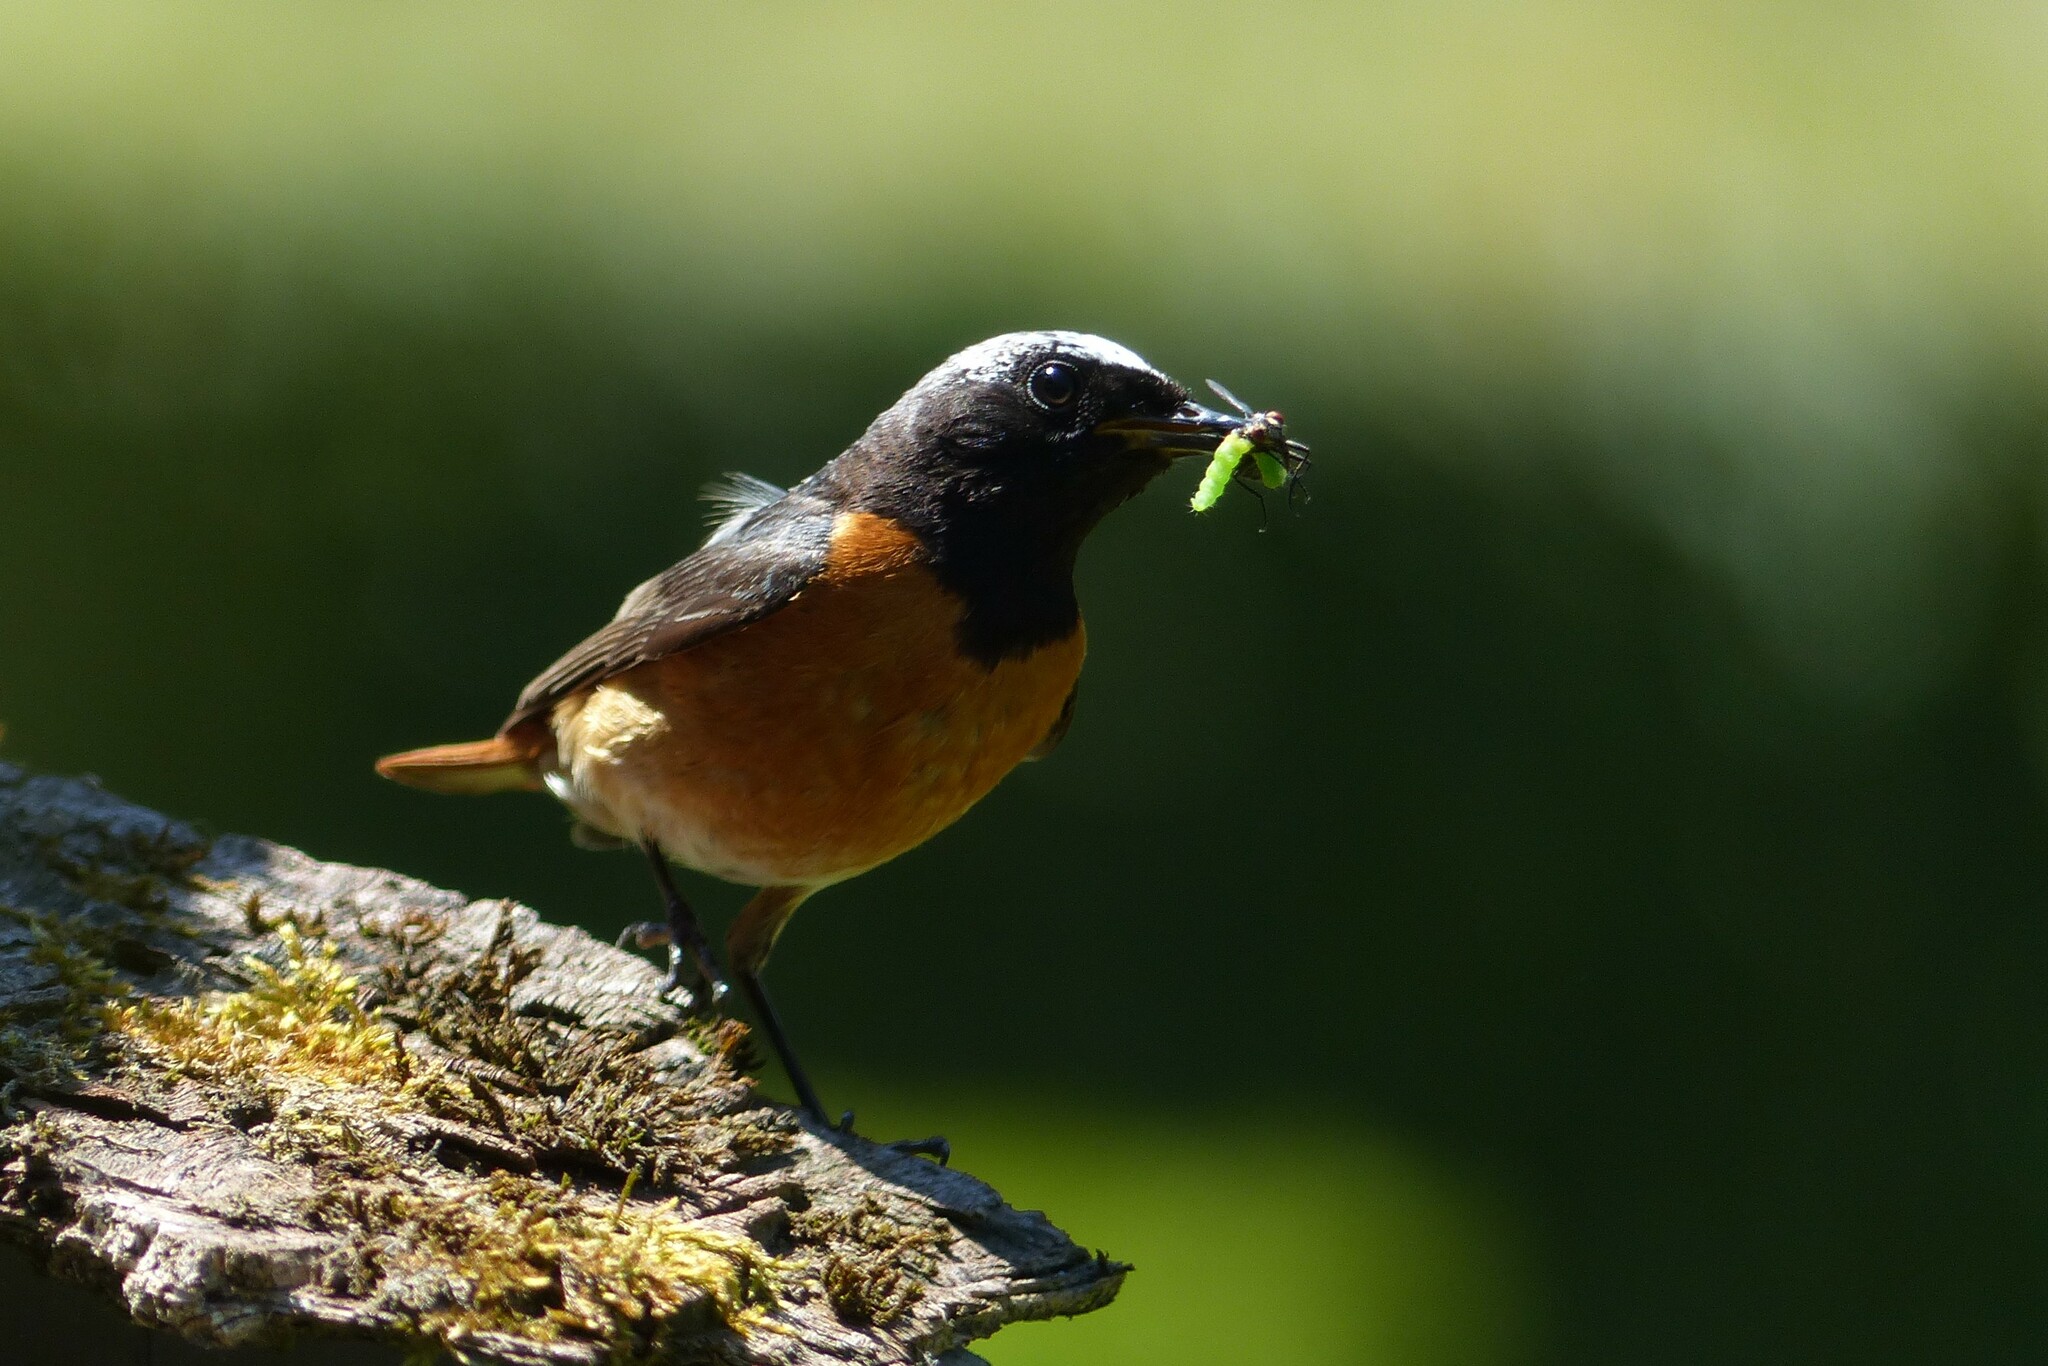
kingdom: Animalia
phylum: Chordata
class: Aves
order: Passeriformes
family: Muscicapidae
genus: Phoenicurus
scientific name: Phoenicurus phoenicurus
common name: Common redstart
